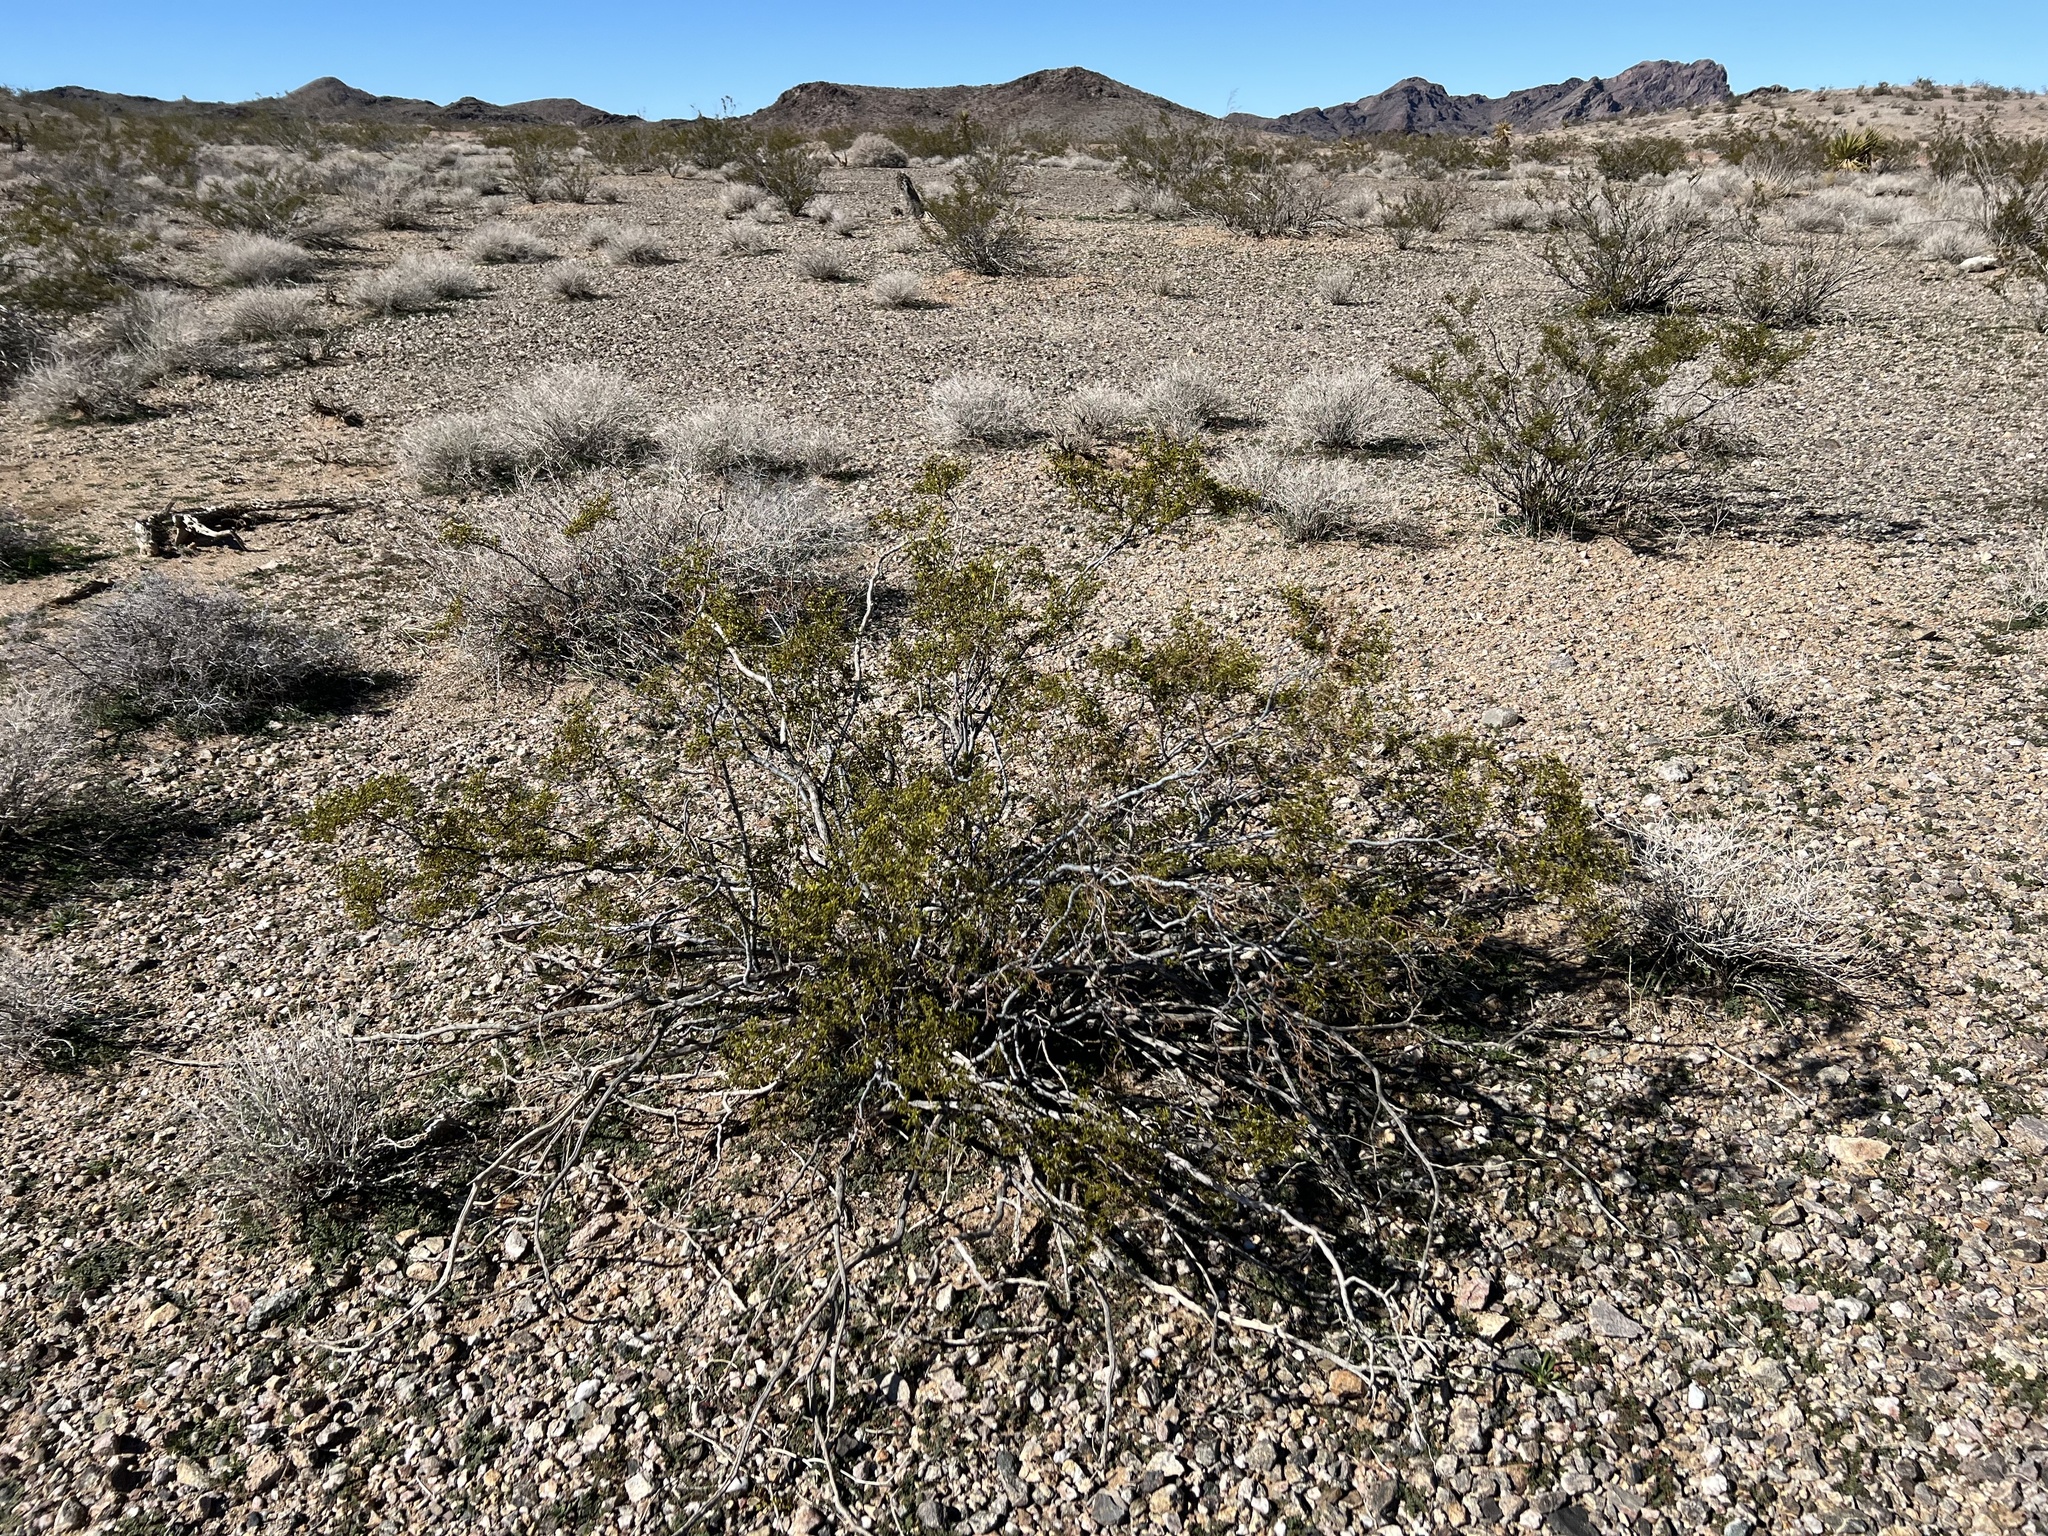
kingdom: Plantae
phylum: Tracheophyta
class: Magnoliopsida
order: Zygophyllales
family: Zygophyllaceae
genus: Larrea
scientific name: Larrea tridentata
